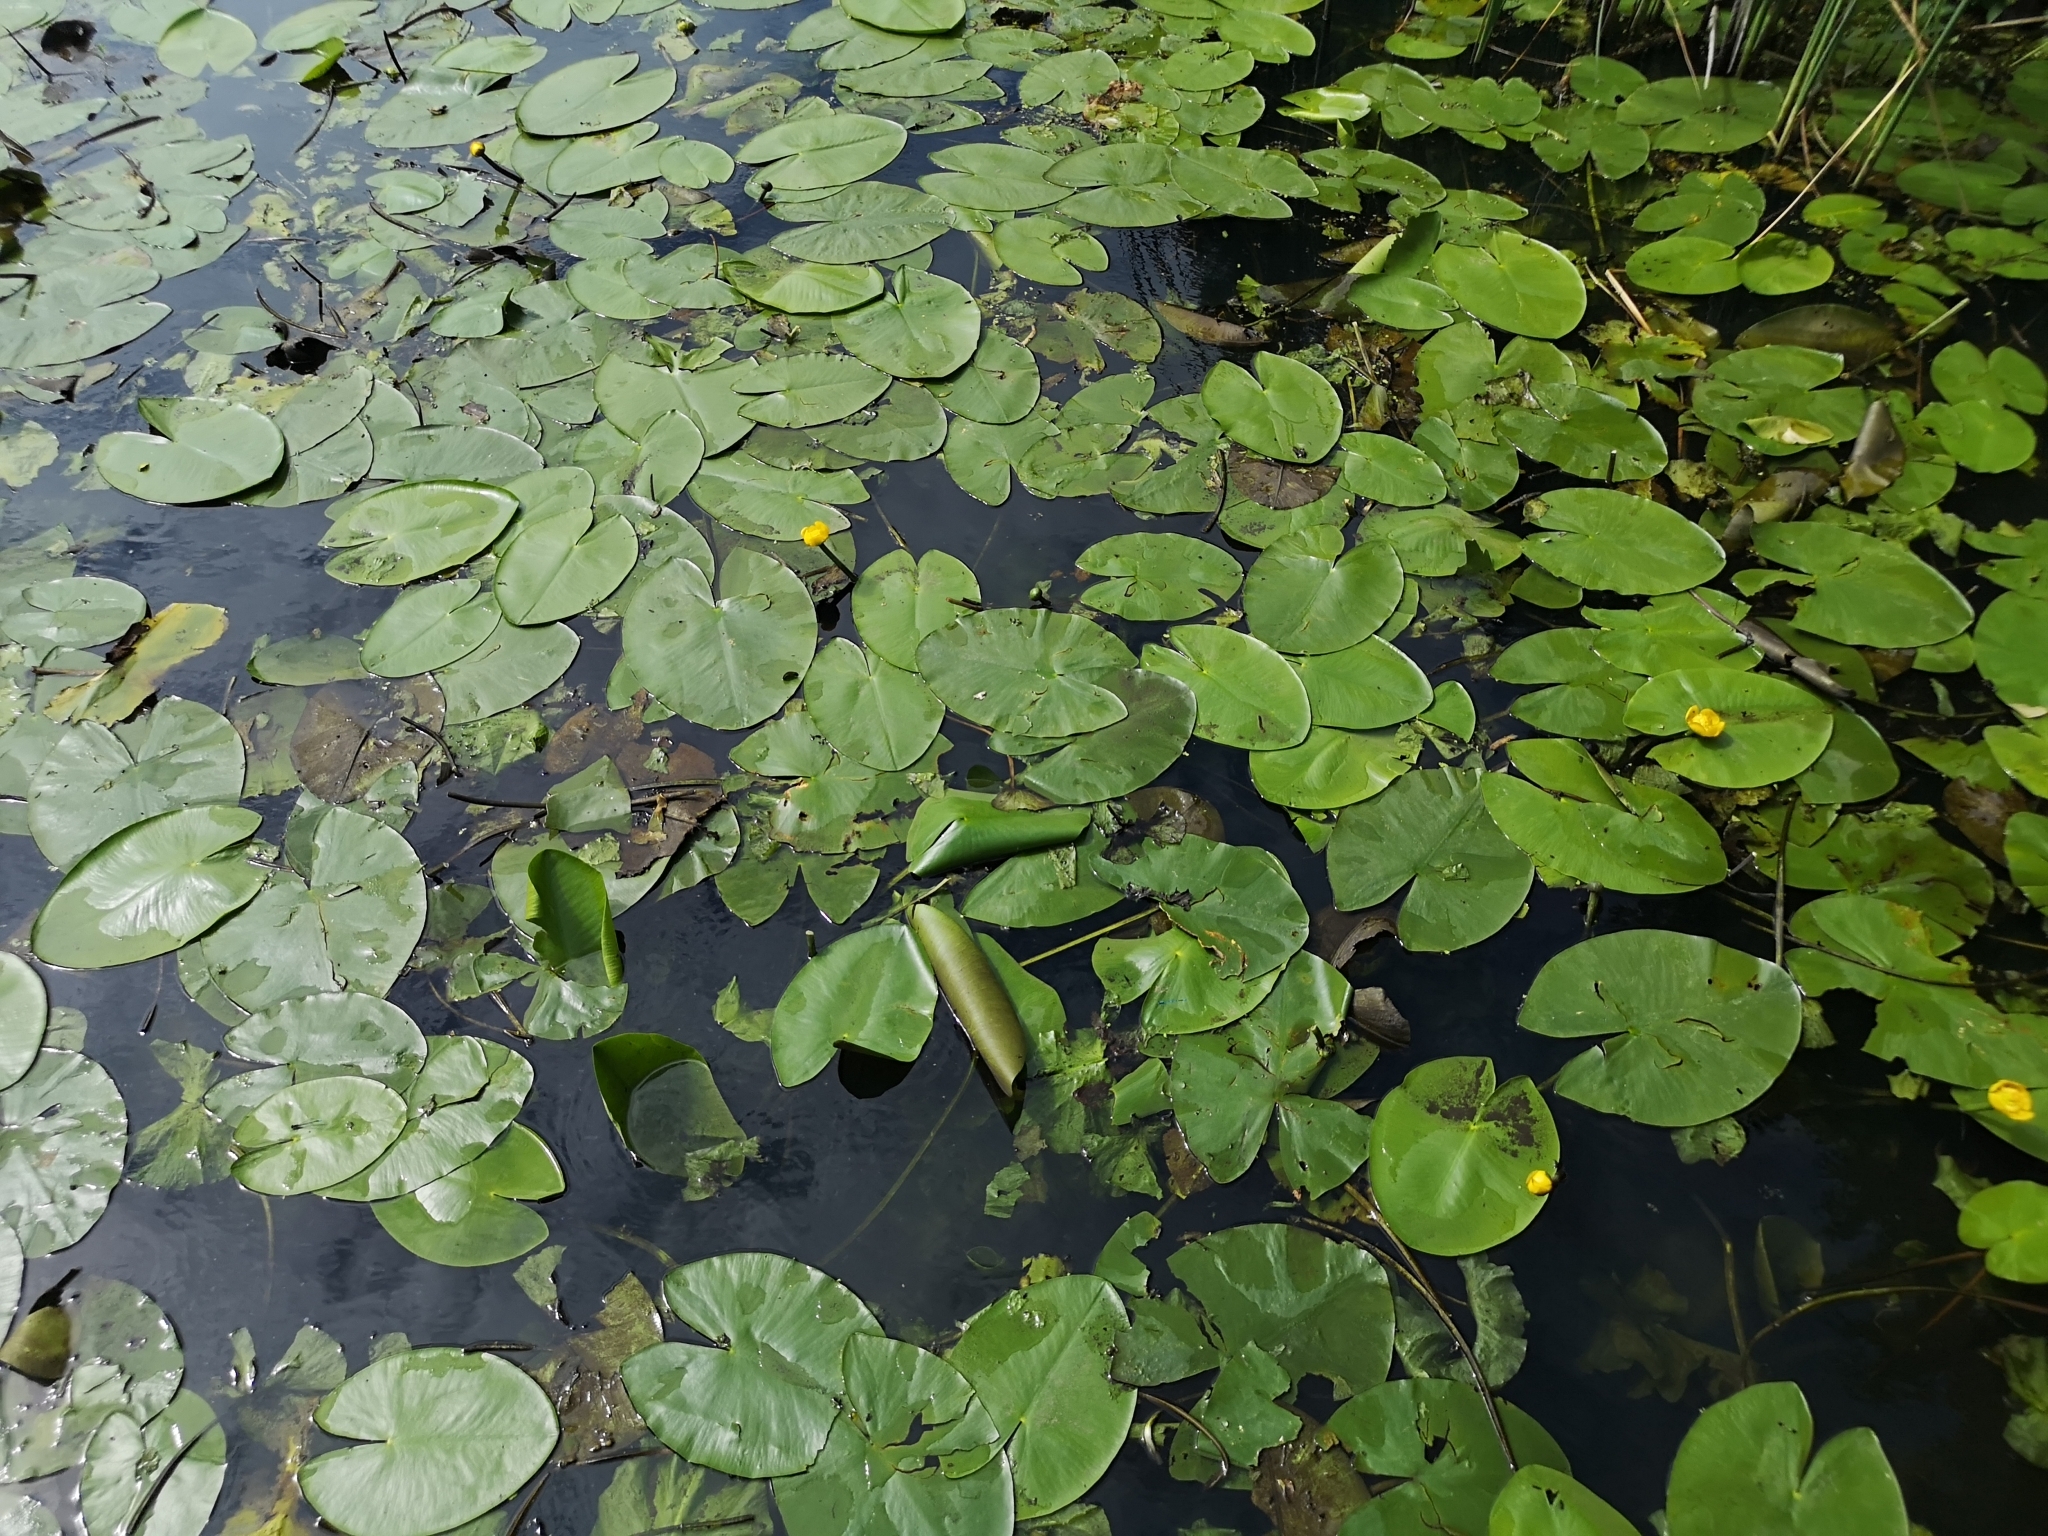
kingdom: Plantae
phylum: Tracheophyta
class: Magnoliopsida
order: Nymphaeales
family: Nymphaeaceae
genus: Nuphar
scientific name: Nuphar lutea
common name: Yellow water-lily
